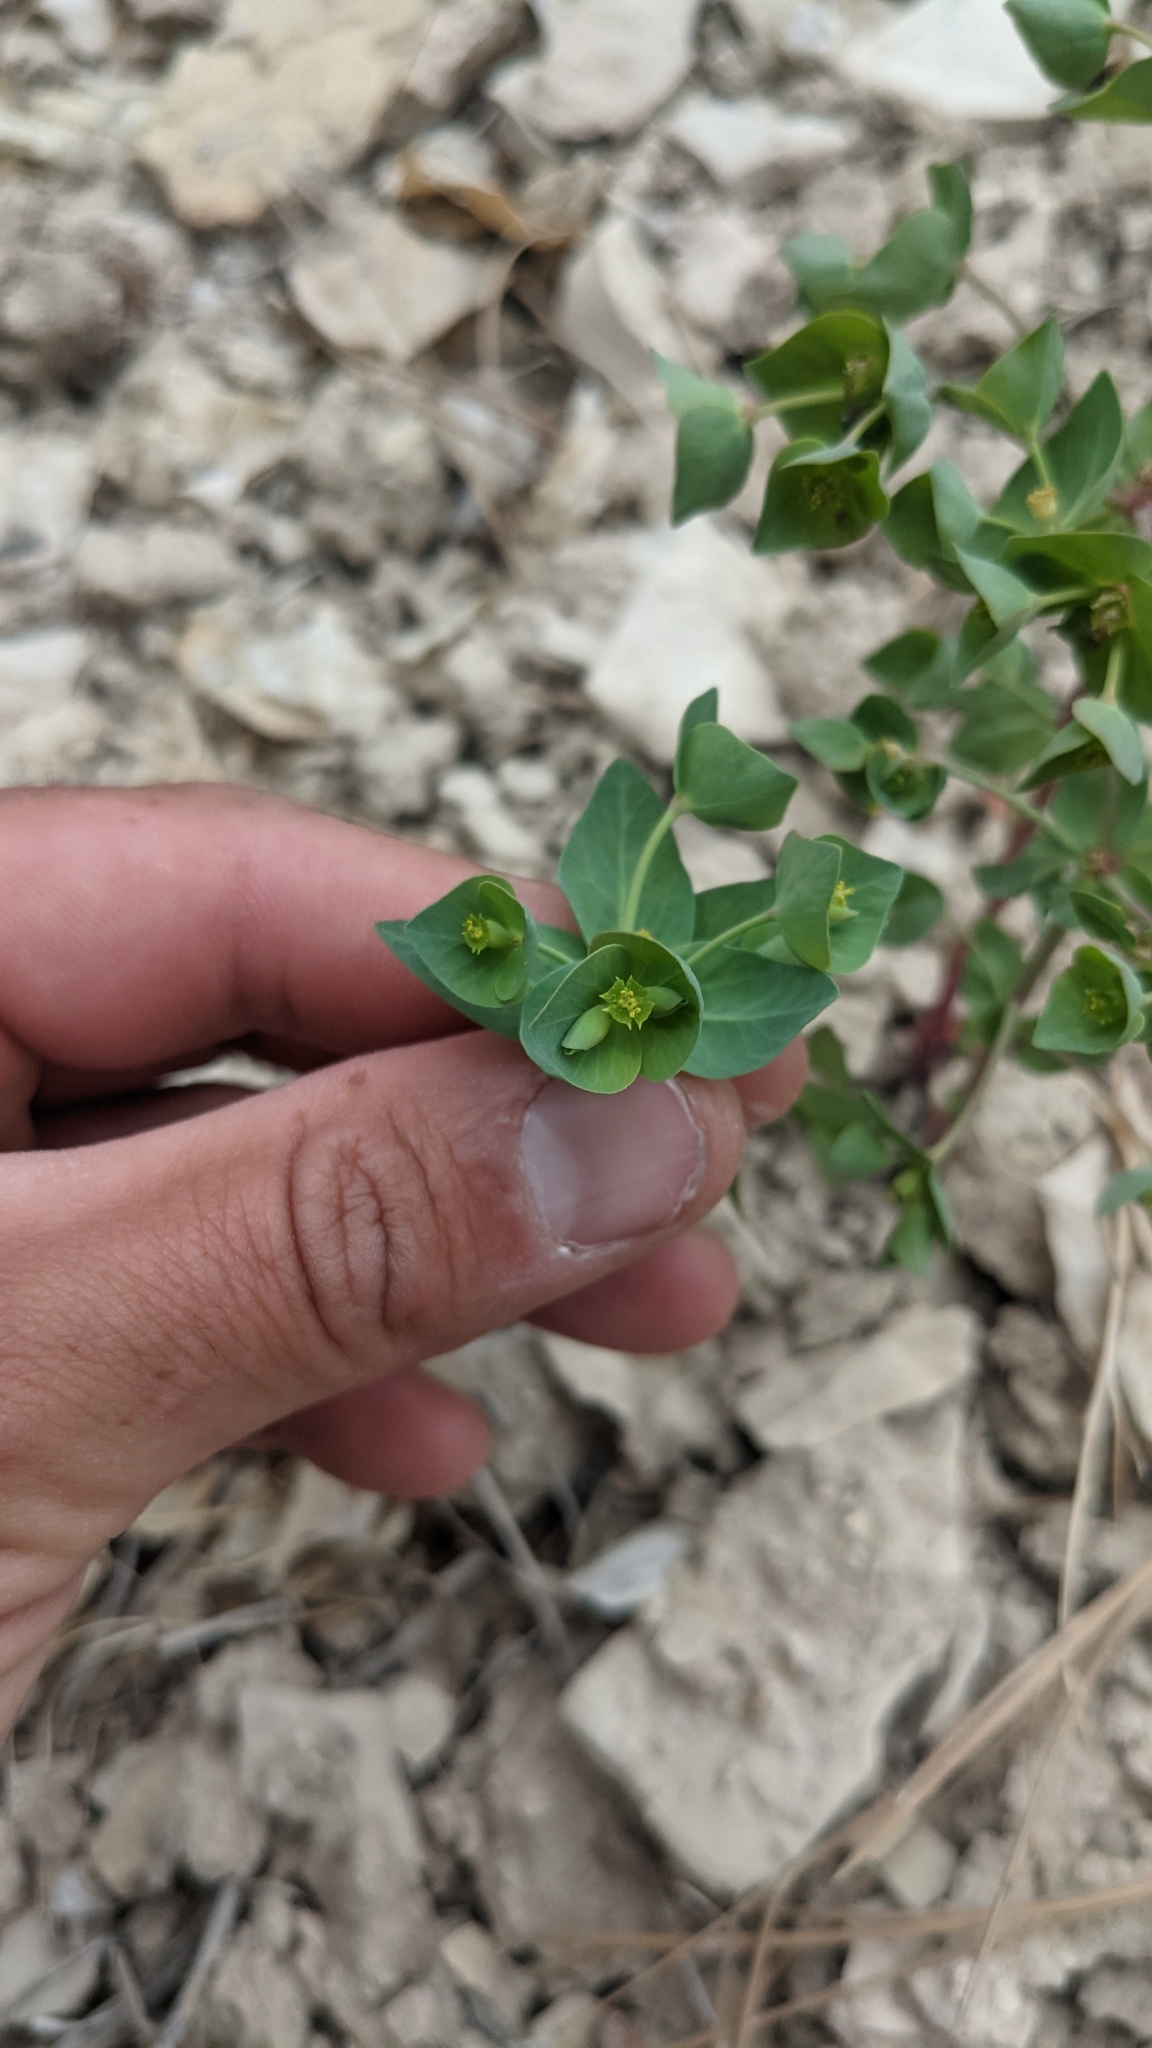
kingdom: Plantae
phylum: Tracheophyta
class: Magnoliopsida
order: Malpighiales
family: Euphorbiaceae
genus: Euphorbia
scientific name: Euphorbia brachycera
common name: Shorthorn spurge
